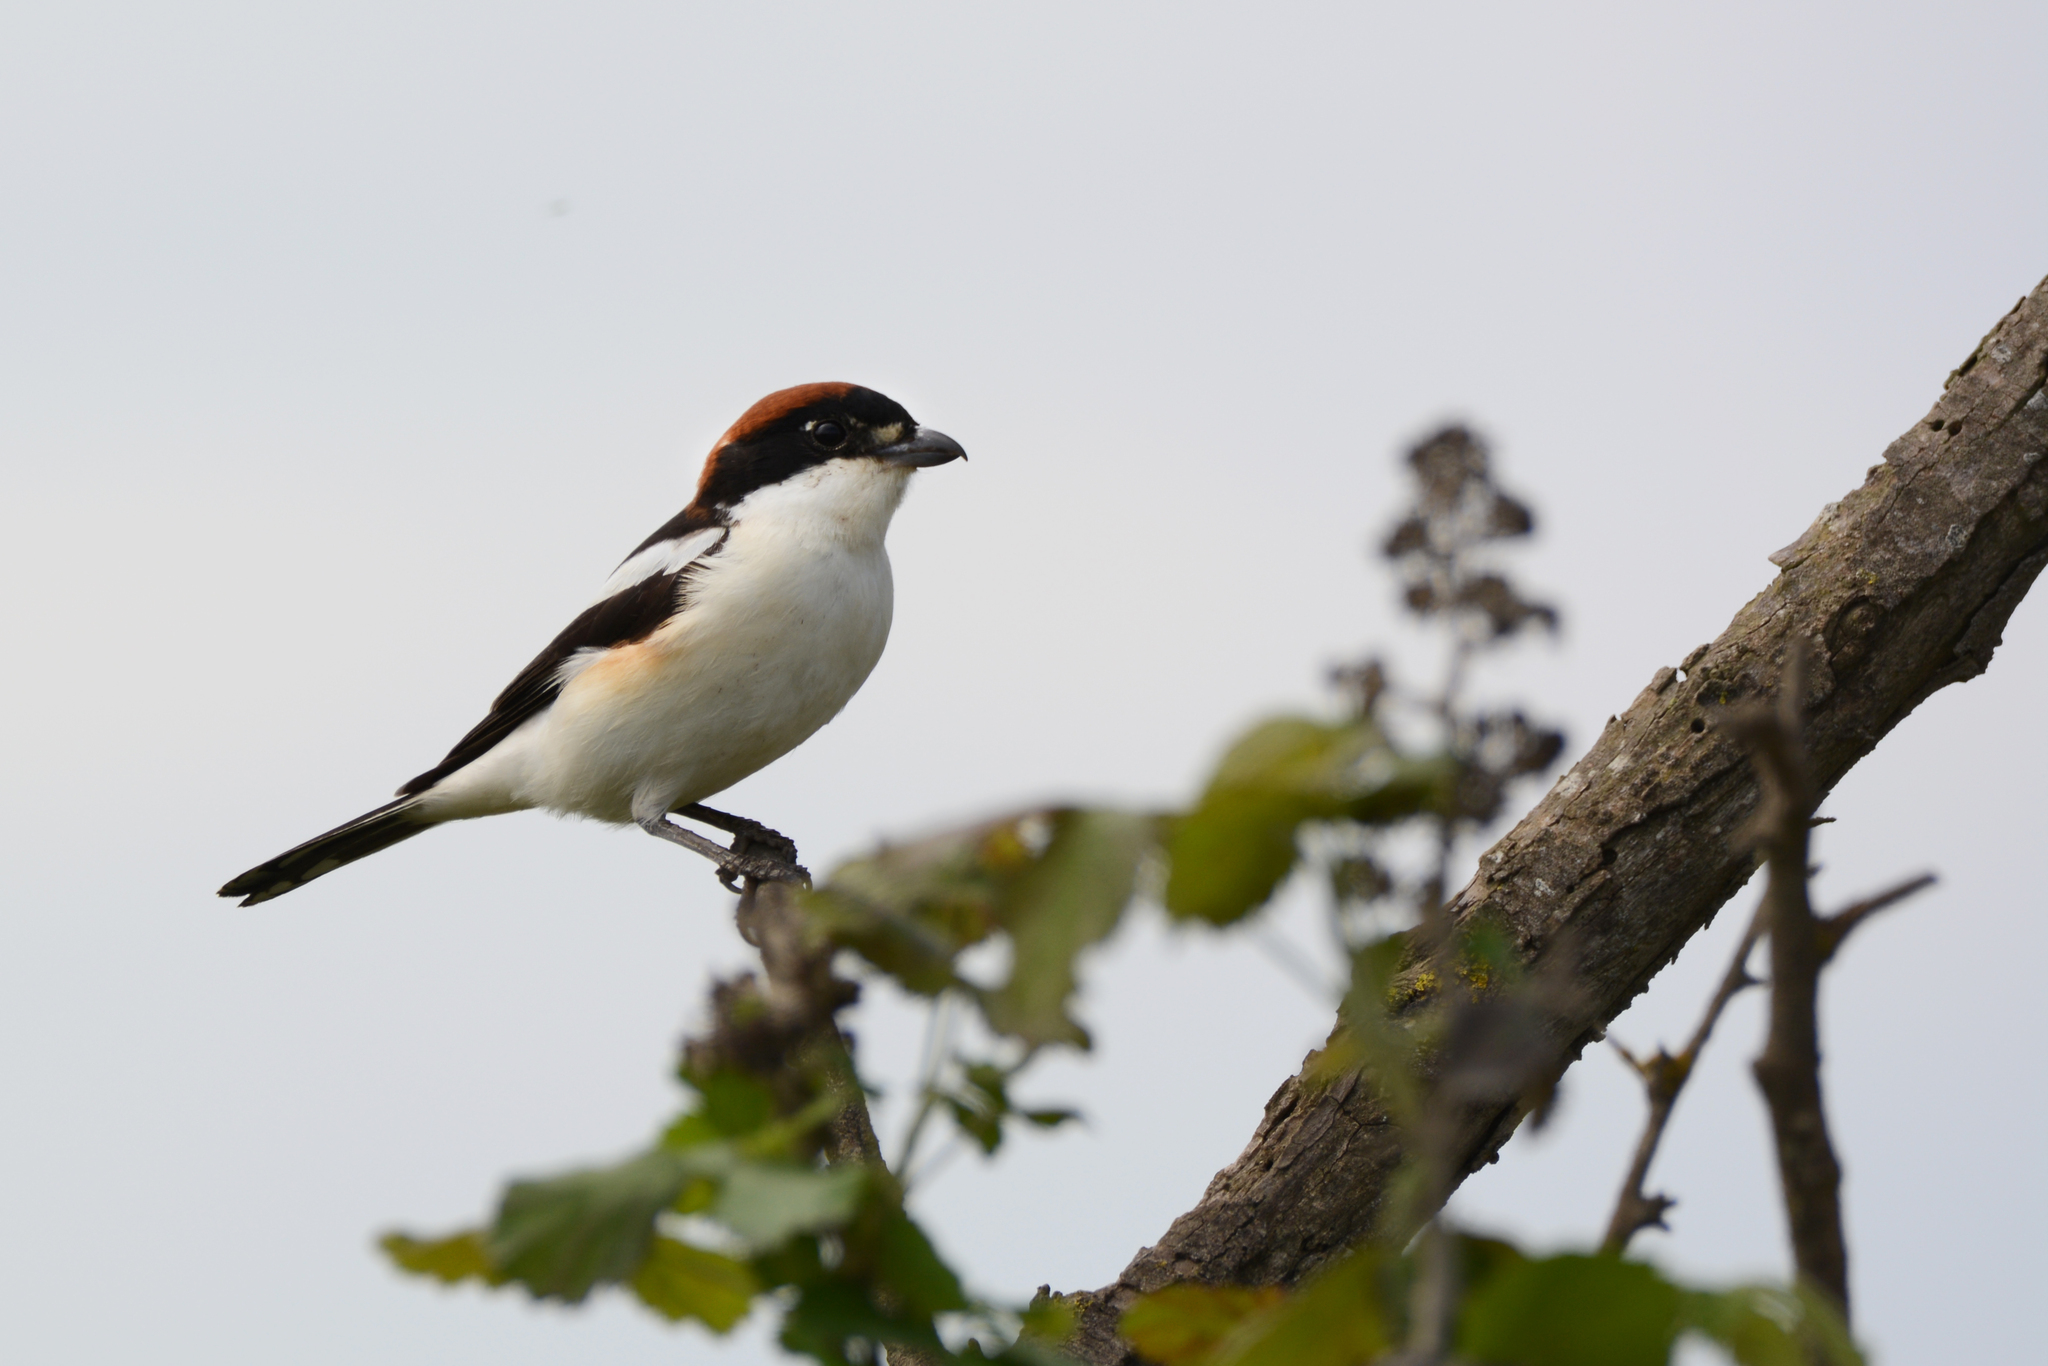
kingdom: Animalia
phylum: Chordata
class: Aves
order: Passeriformes
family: Laniidae
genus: Lanius
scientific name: Lanius senator
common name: Woodchat shrike
